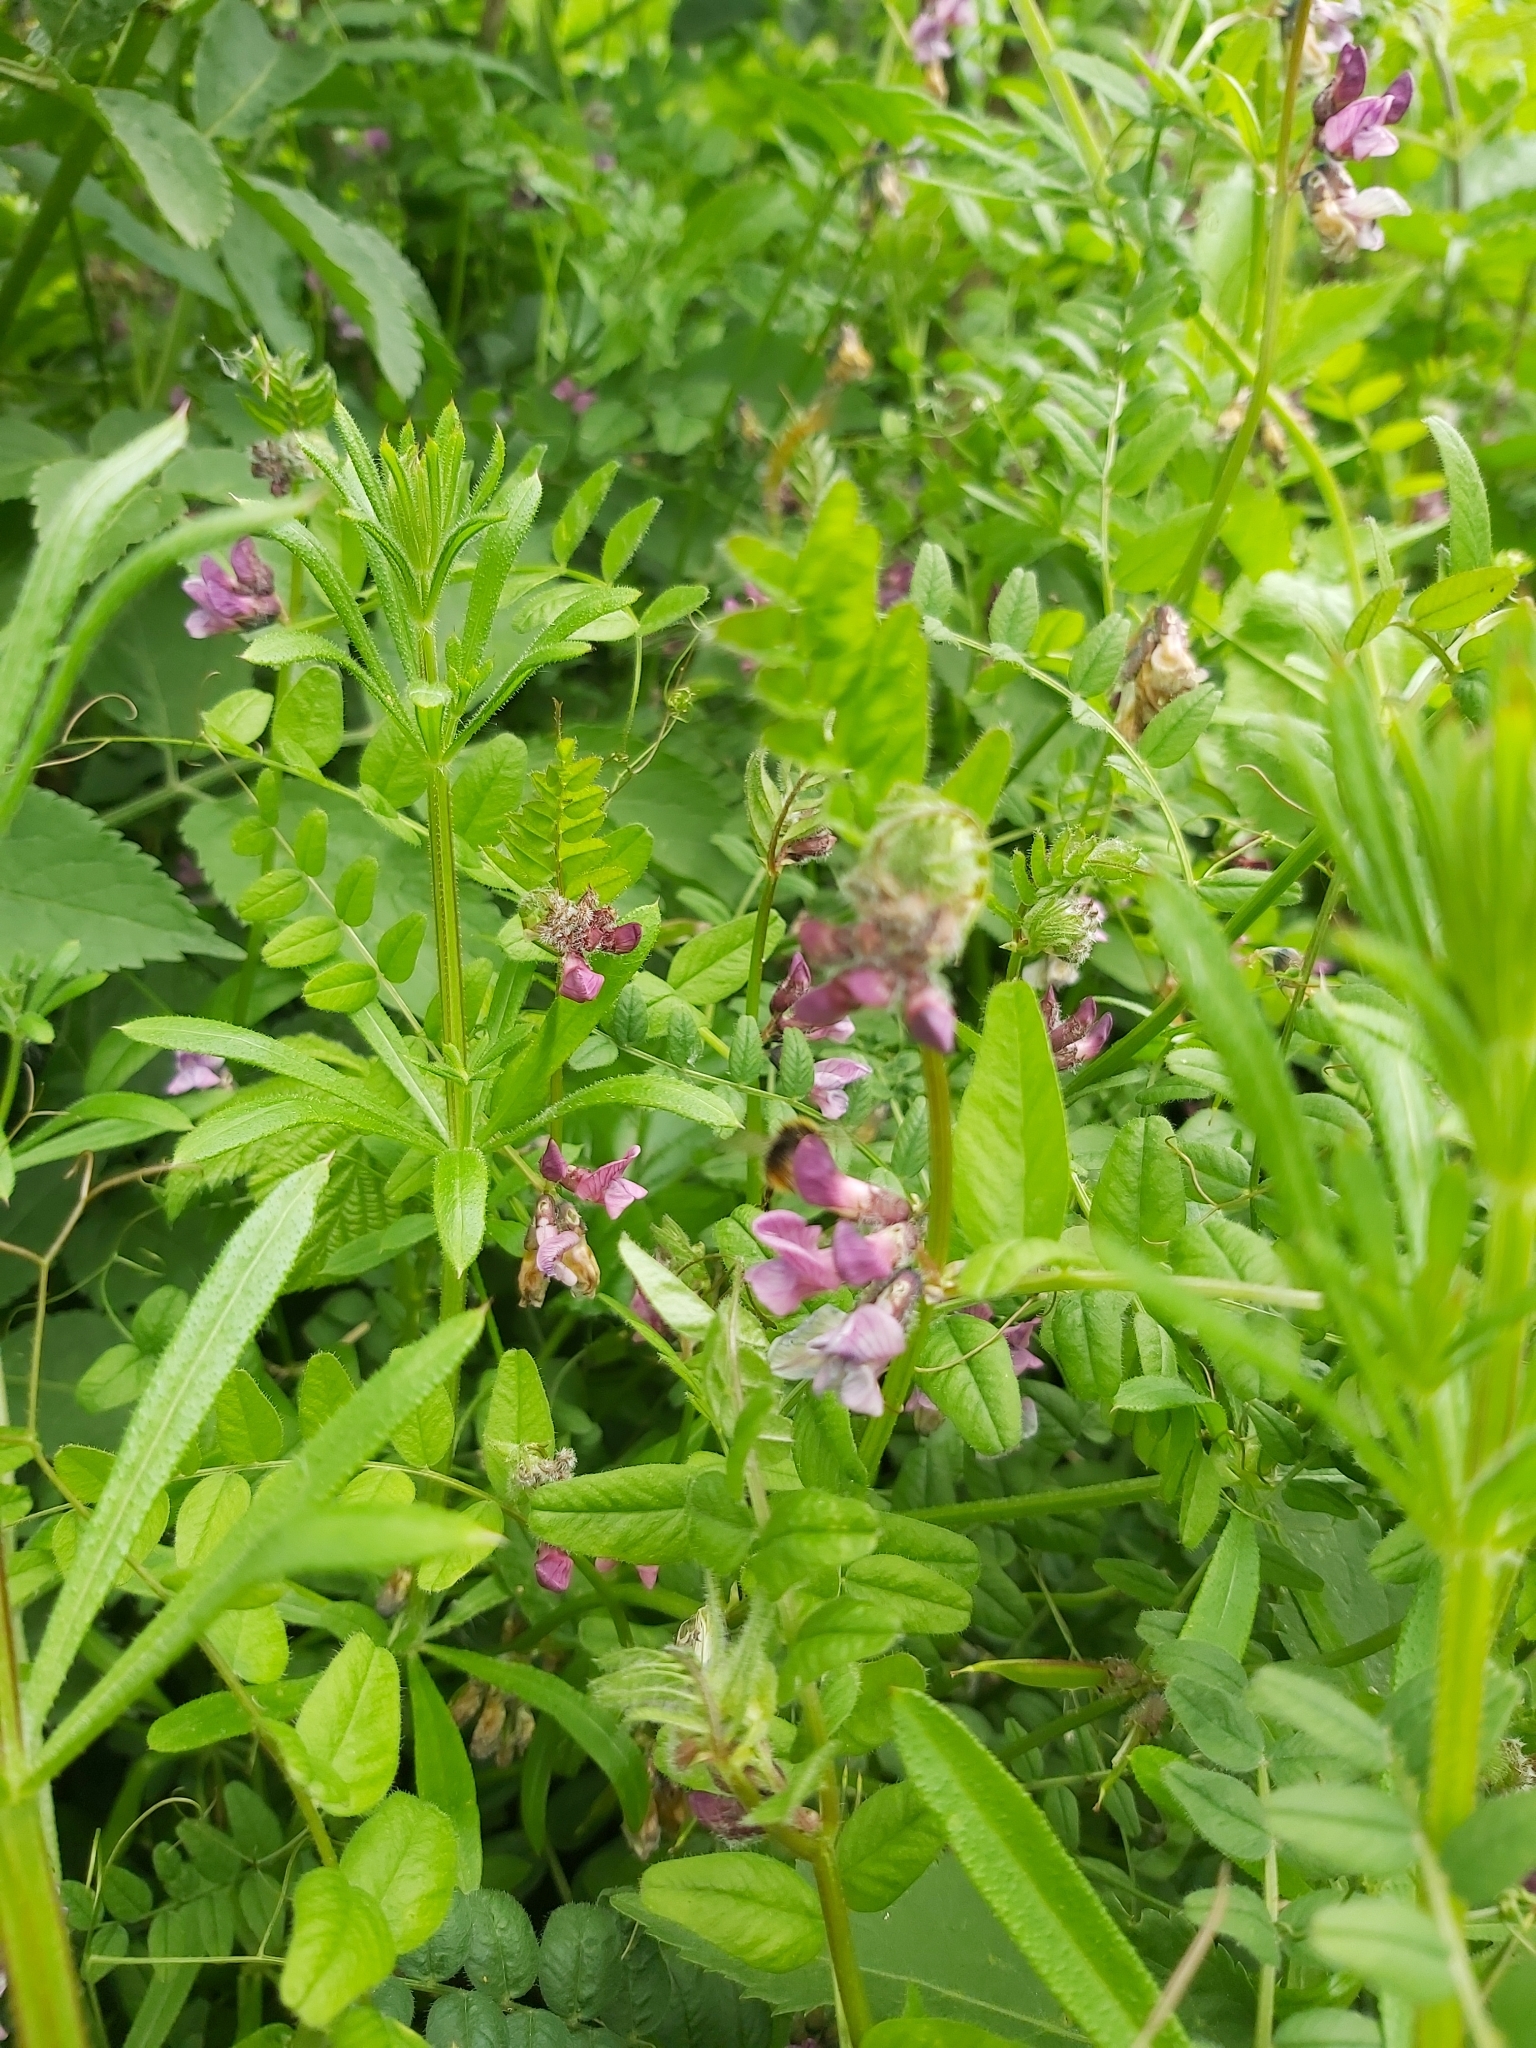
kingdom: Plantae
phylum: Tracheophyta
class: Magnoliopsida
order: Fabales
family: Fabaceae
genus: Vicia
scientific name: Vicia sepium
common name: Bush vetch
